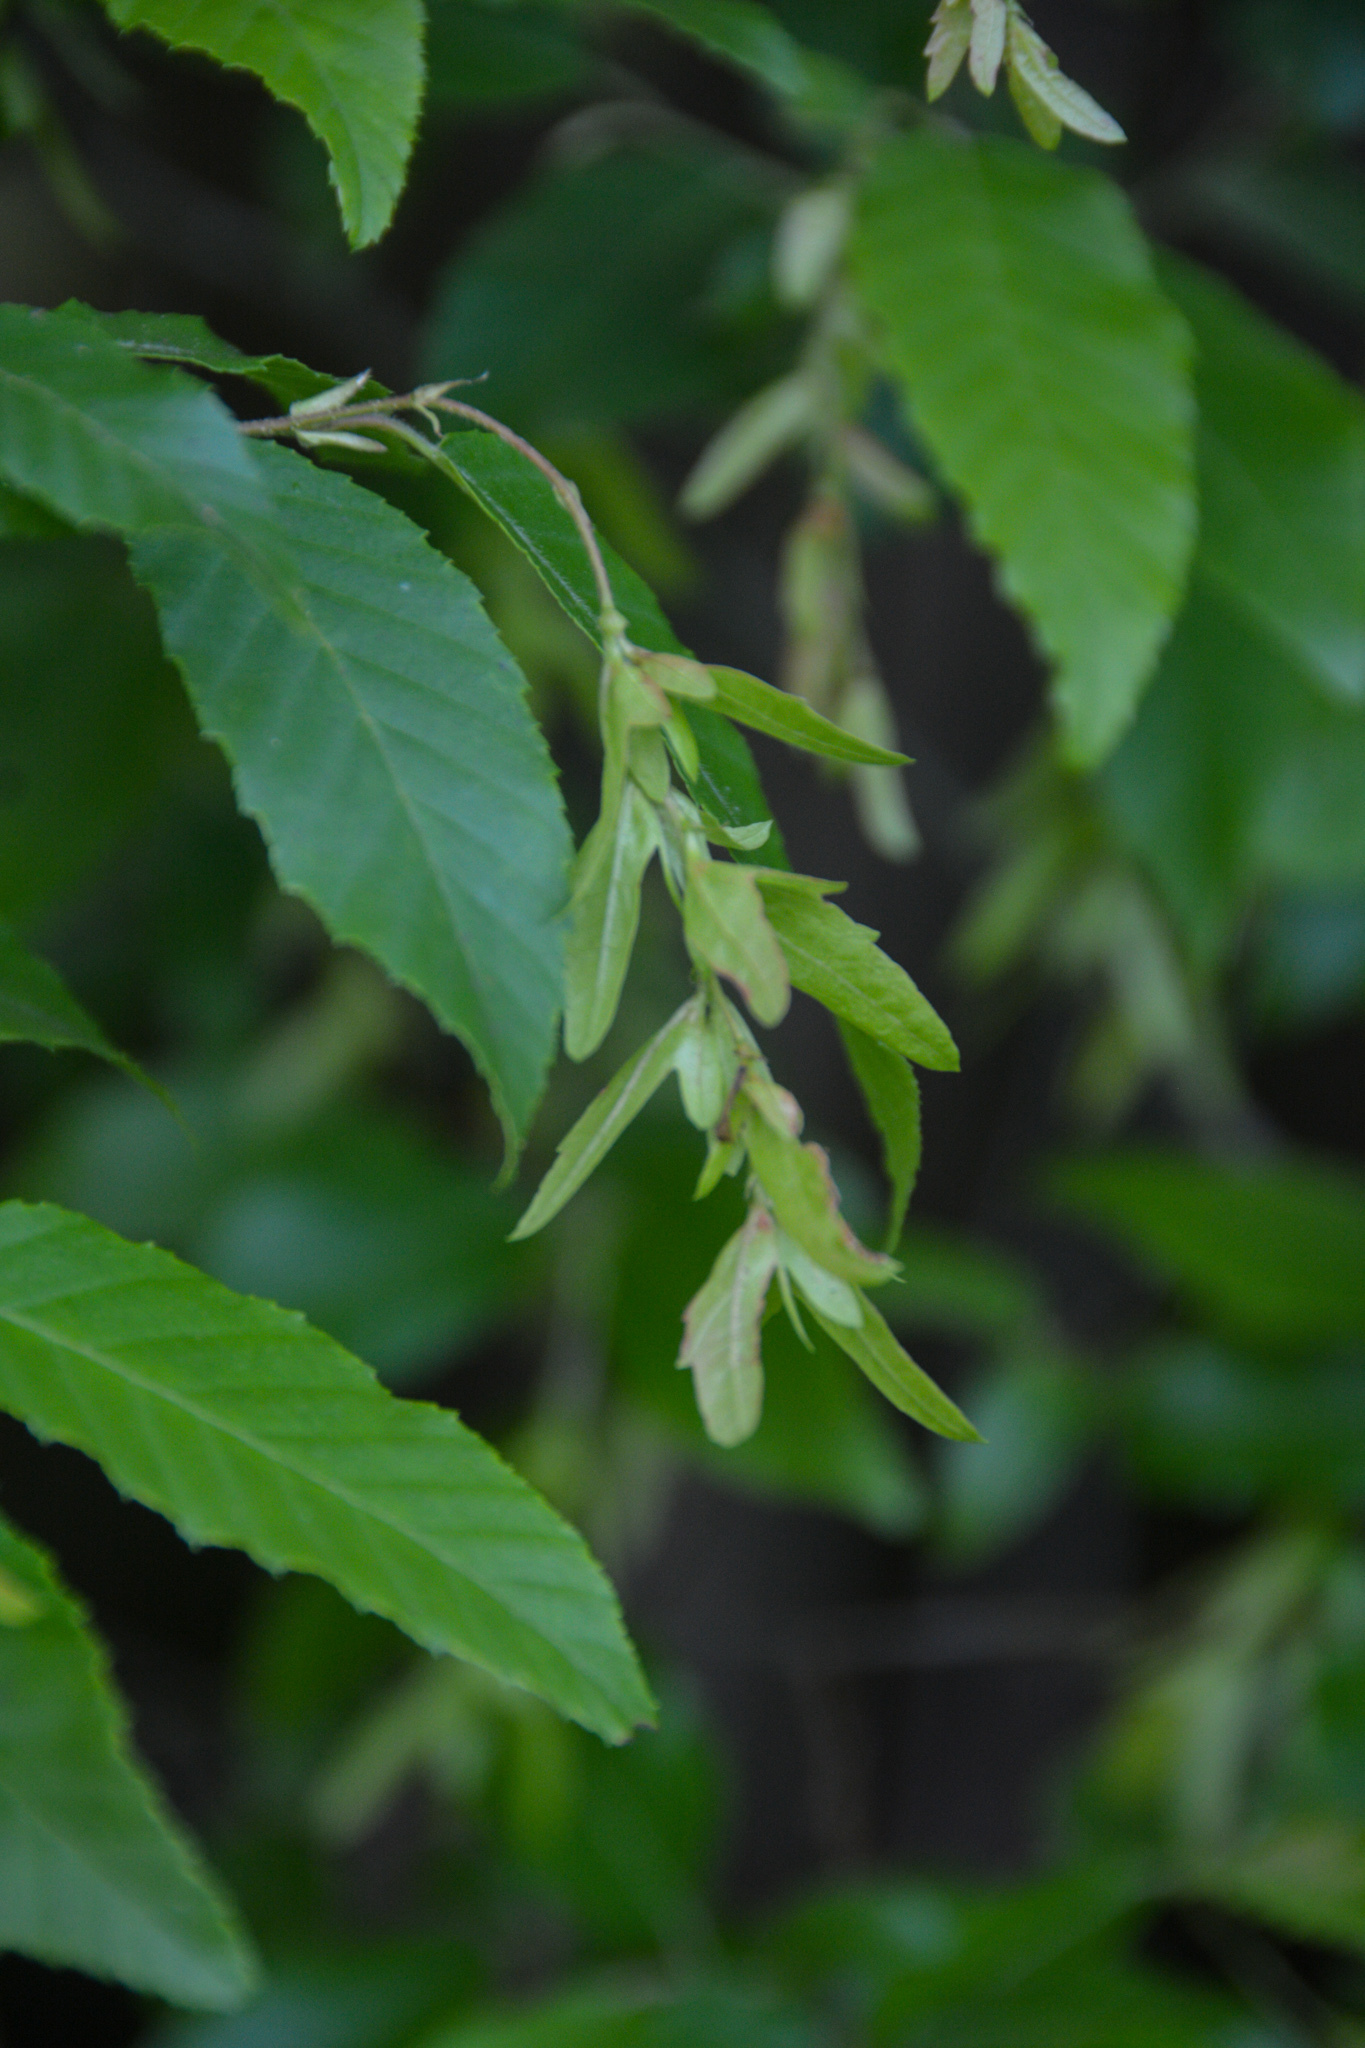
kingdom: Plantae
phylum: Tracheophyta
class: Magnoliopsida
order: Fagales
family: Betulaceae
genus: Carpinus
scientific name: Carpinus caroliniana
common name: American hornbeam
